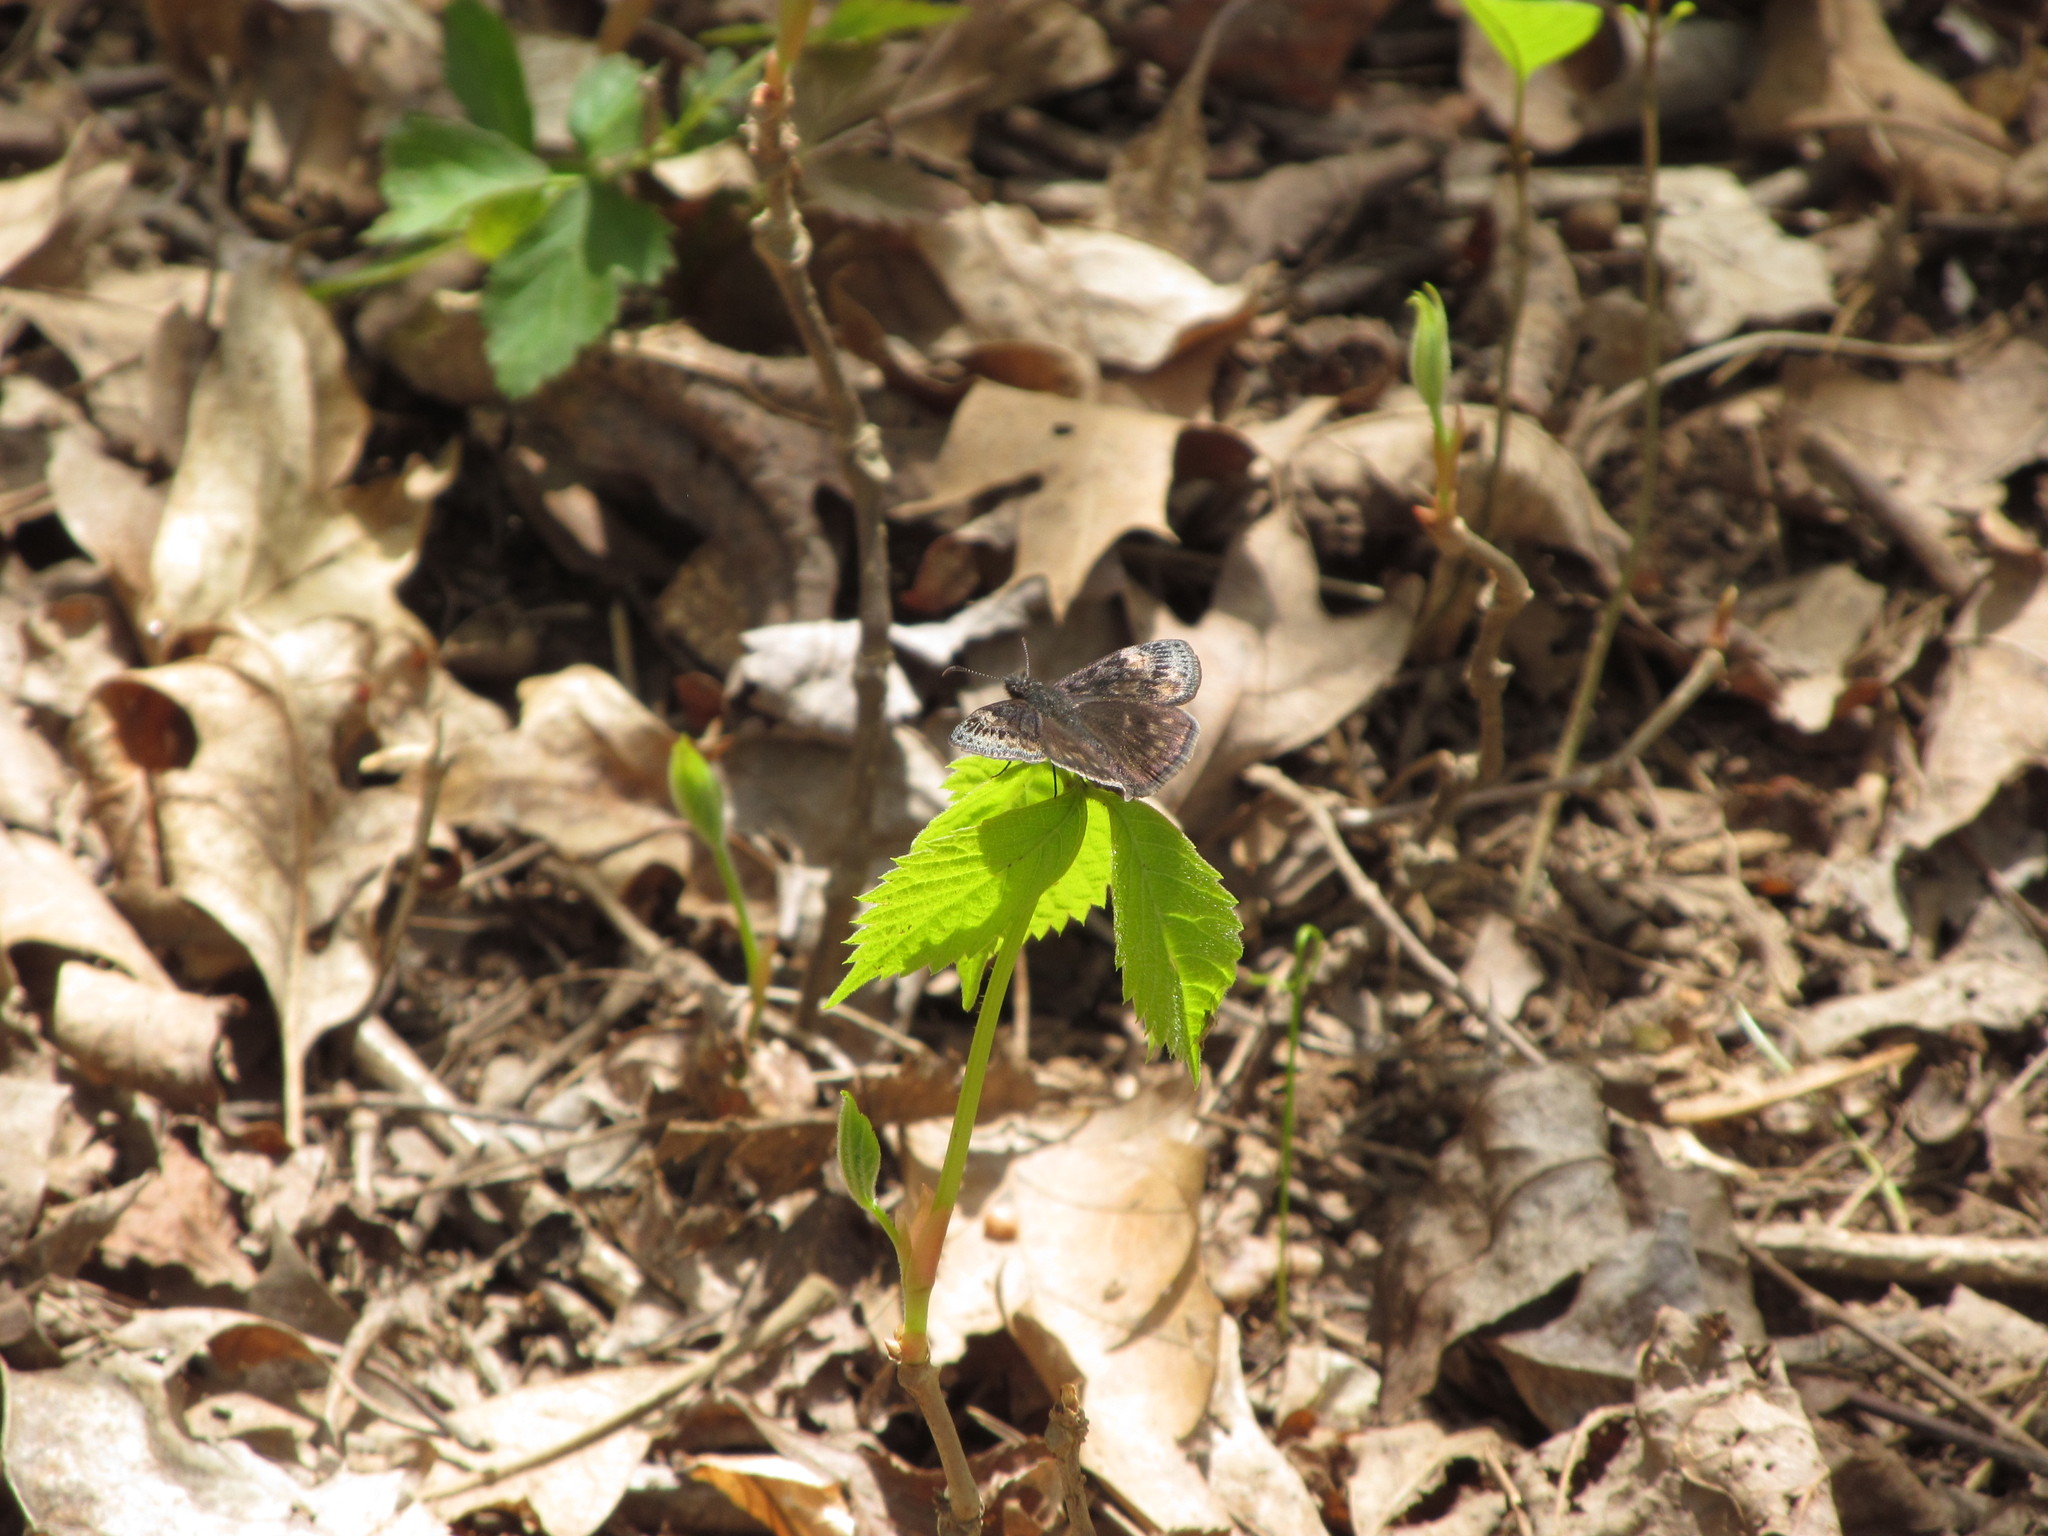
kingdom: Animalia
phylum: Arthropoda
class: Insecta
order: Lepidoptera
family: Hesperiidae
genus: Erynnis
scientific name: Erynnis juvenalis
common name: Juvenal's duskywing
